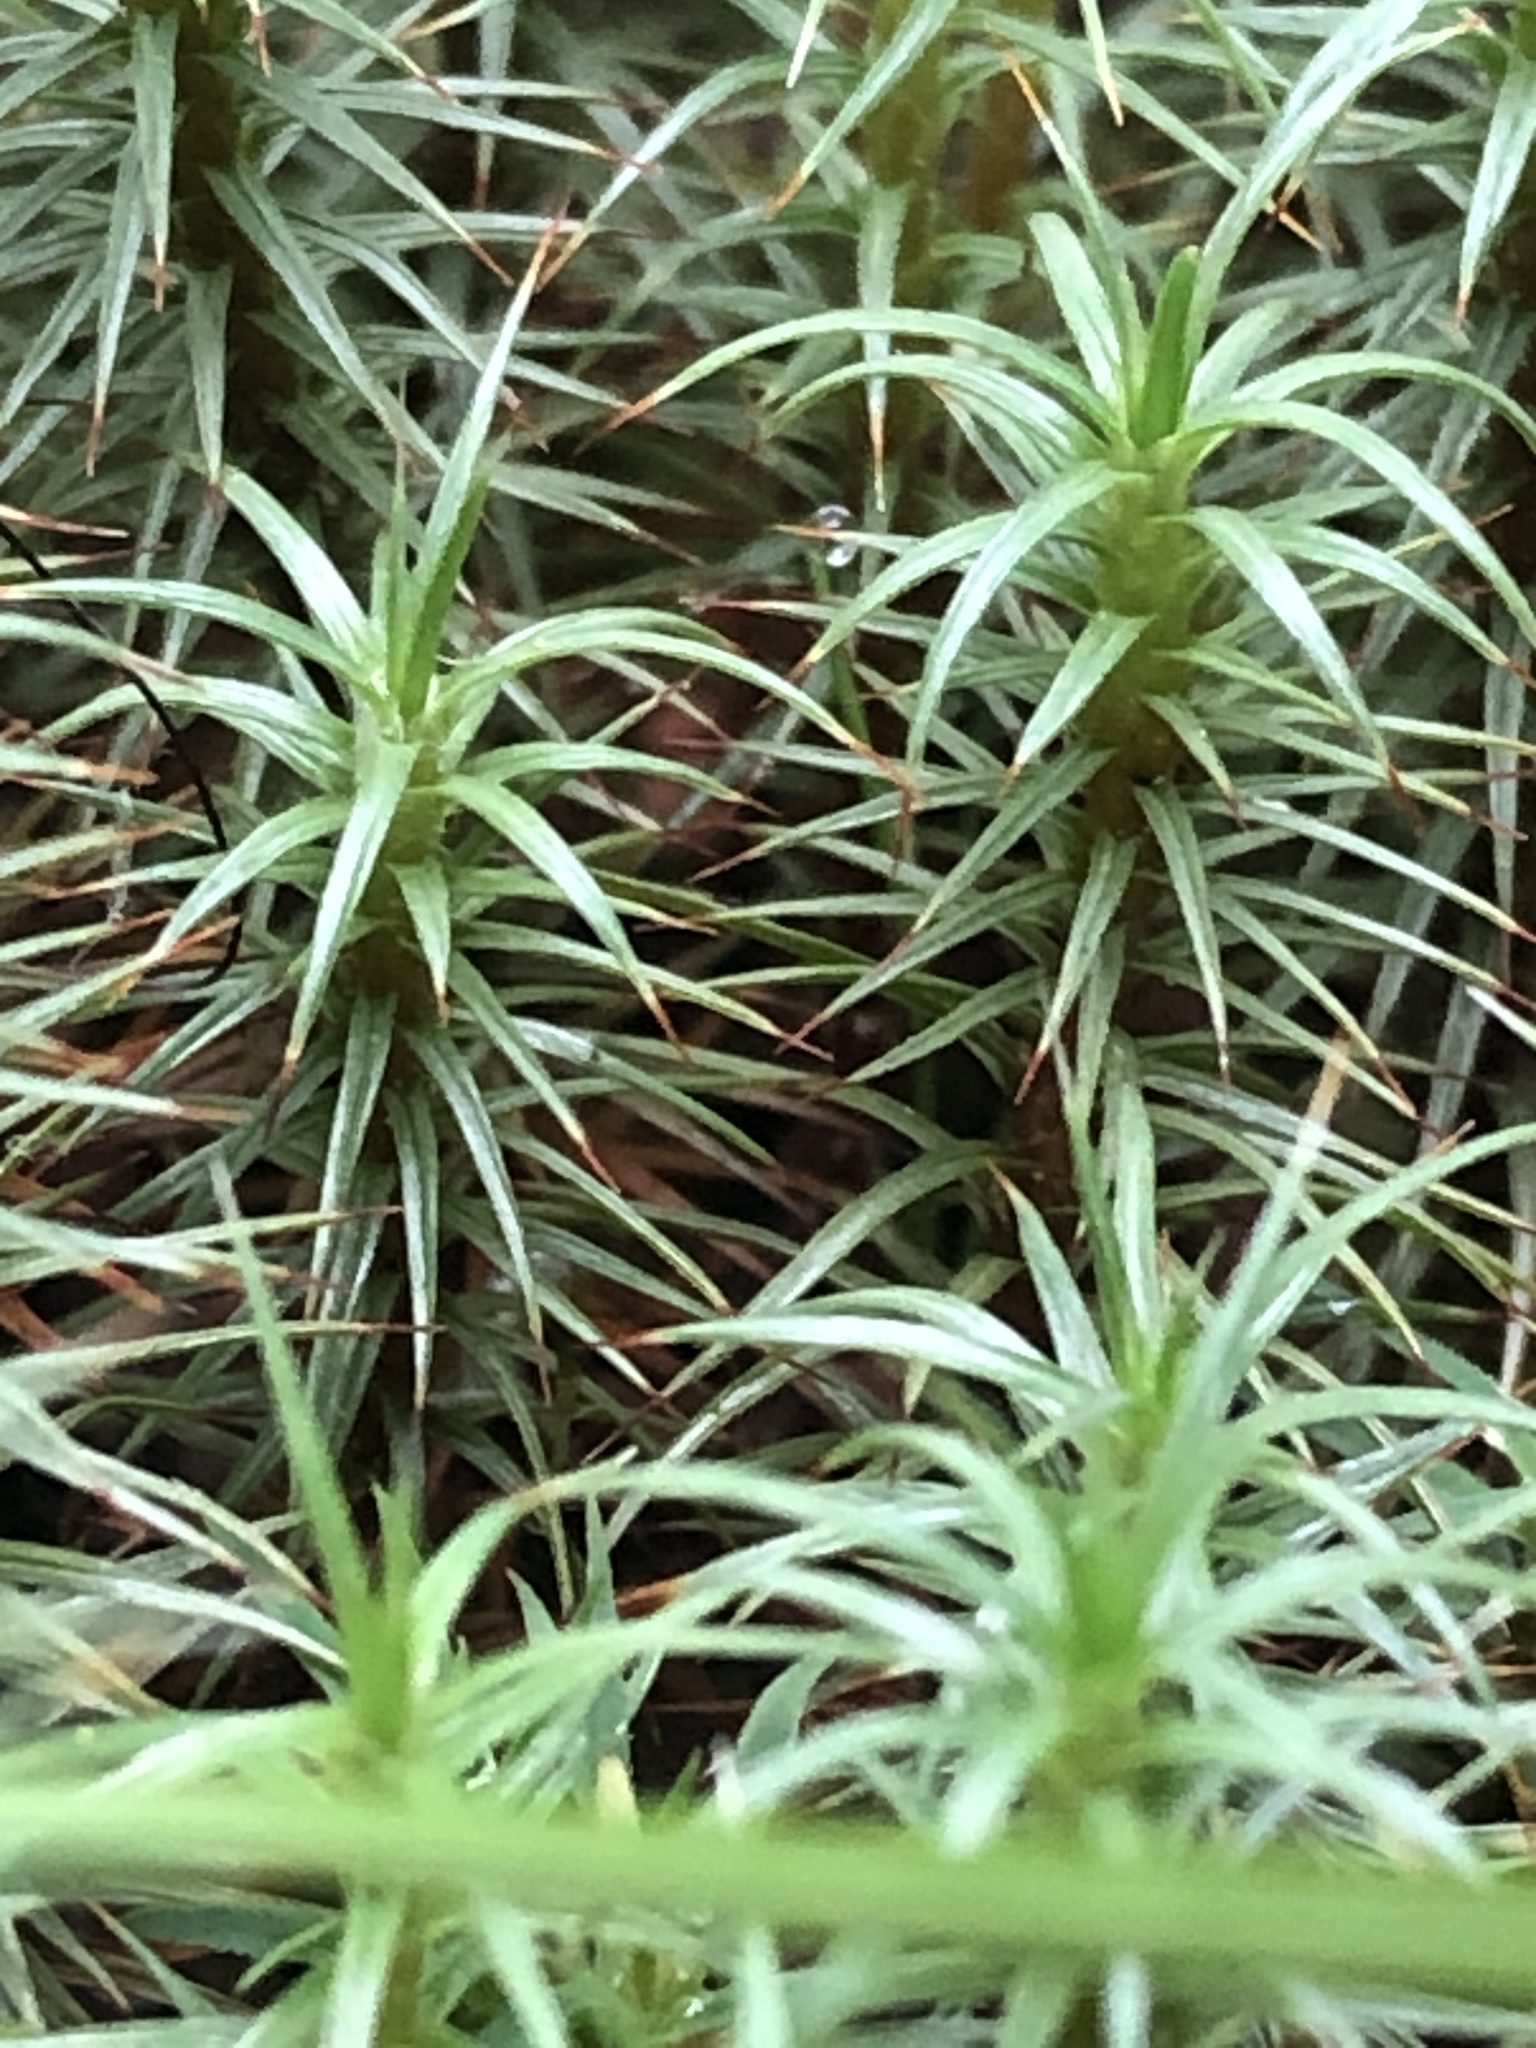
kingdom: Plantae
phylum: Bryophyta
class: Polytrichopsida
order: Polytrichales
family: Polytrichaceae
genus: Polytrichum
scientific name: Polytrichum juniperinum
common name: Juniper haircap moss
